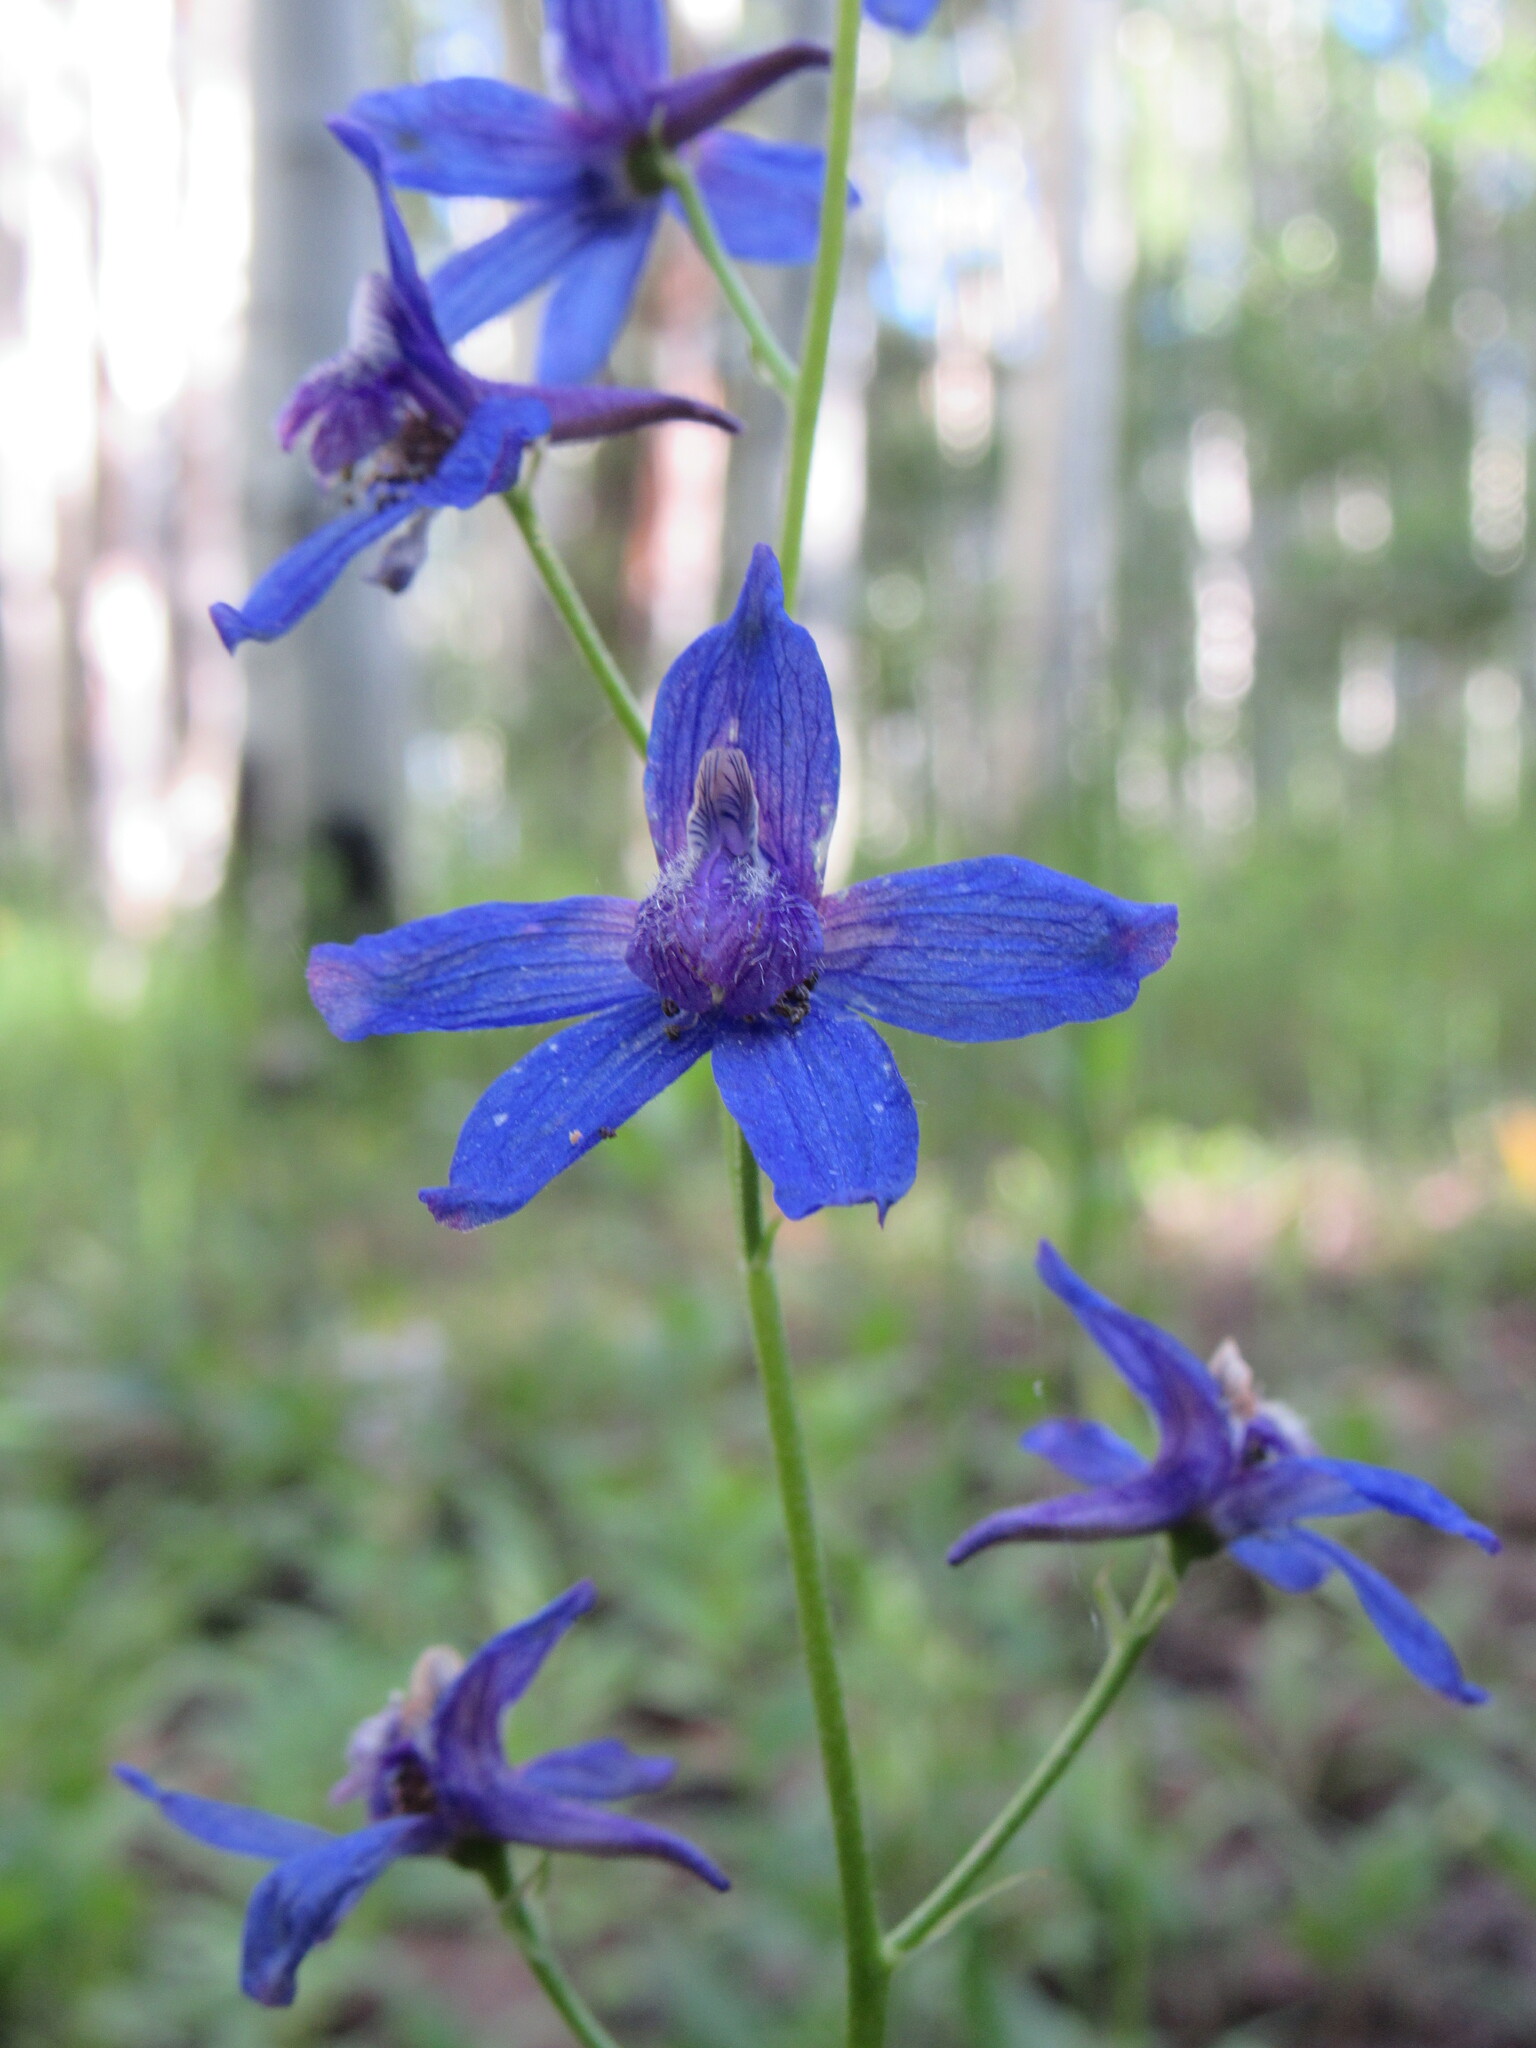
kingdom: Plantae
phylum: Tracheophyta
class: Magnoliopsida
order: Ranunculales
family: Ranunculaceae
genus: Delphinium
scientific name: Delphinium nuttallianum
